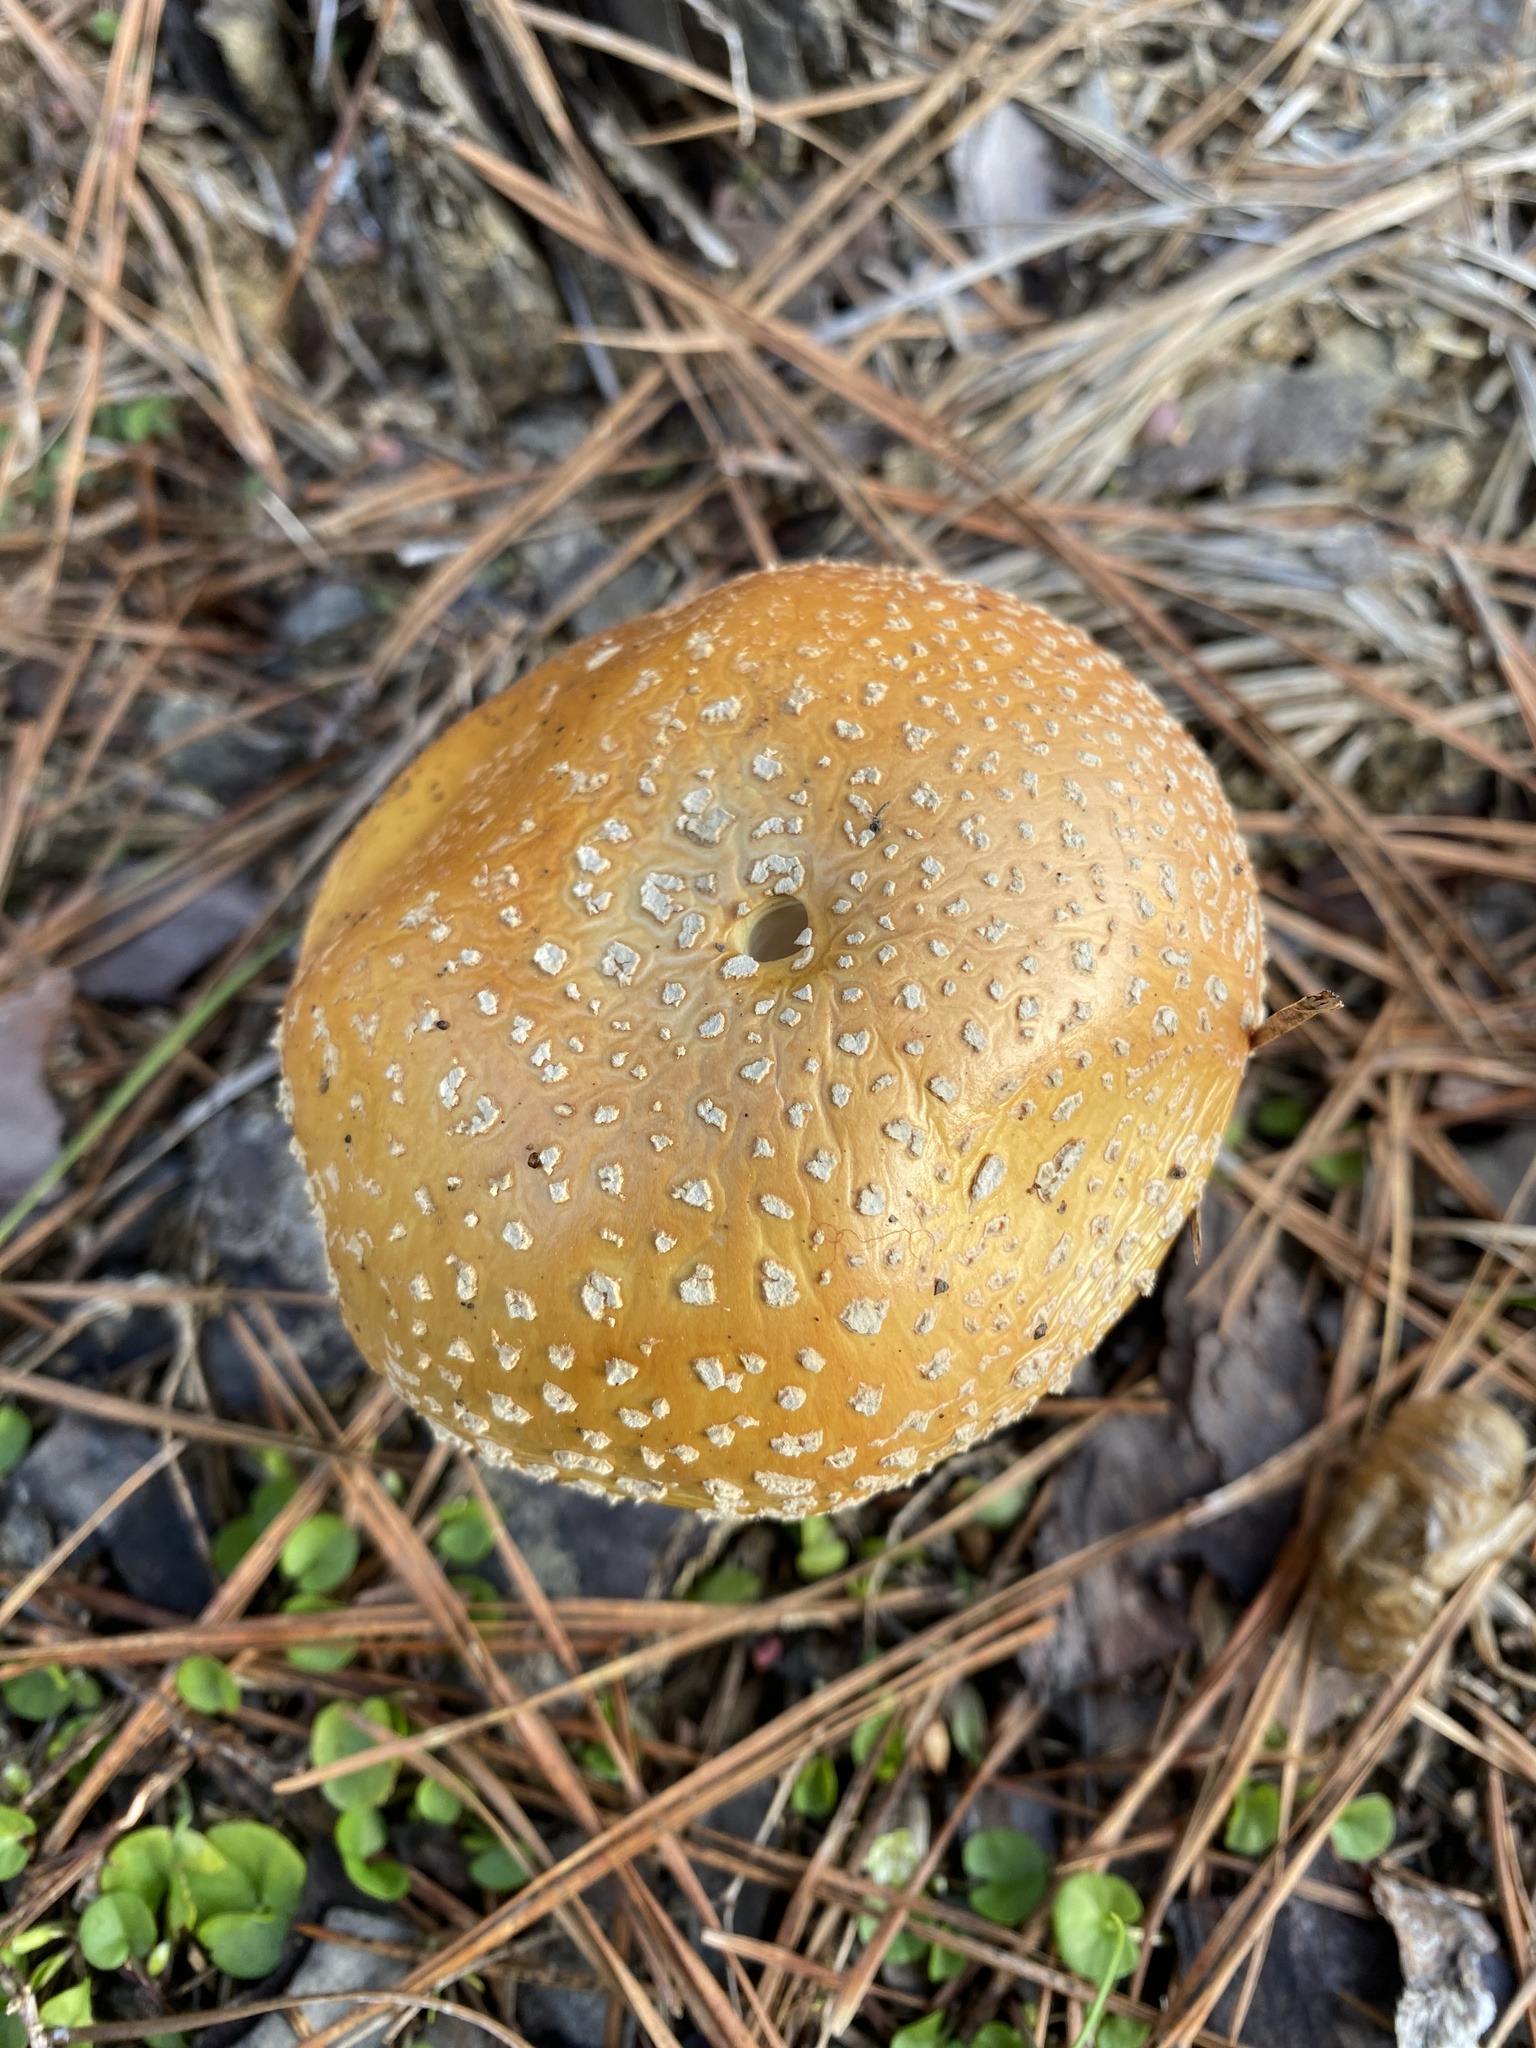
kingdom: Fungi
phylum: Basidiomycota
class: Agaricomycetes
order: Agaricales
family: Amanitaceae
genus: Amanita
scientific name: Amanita persicina
